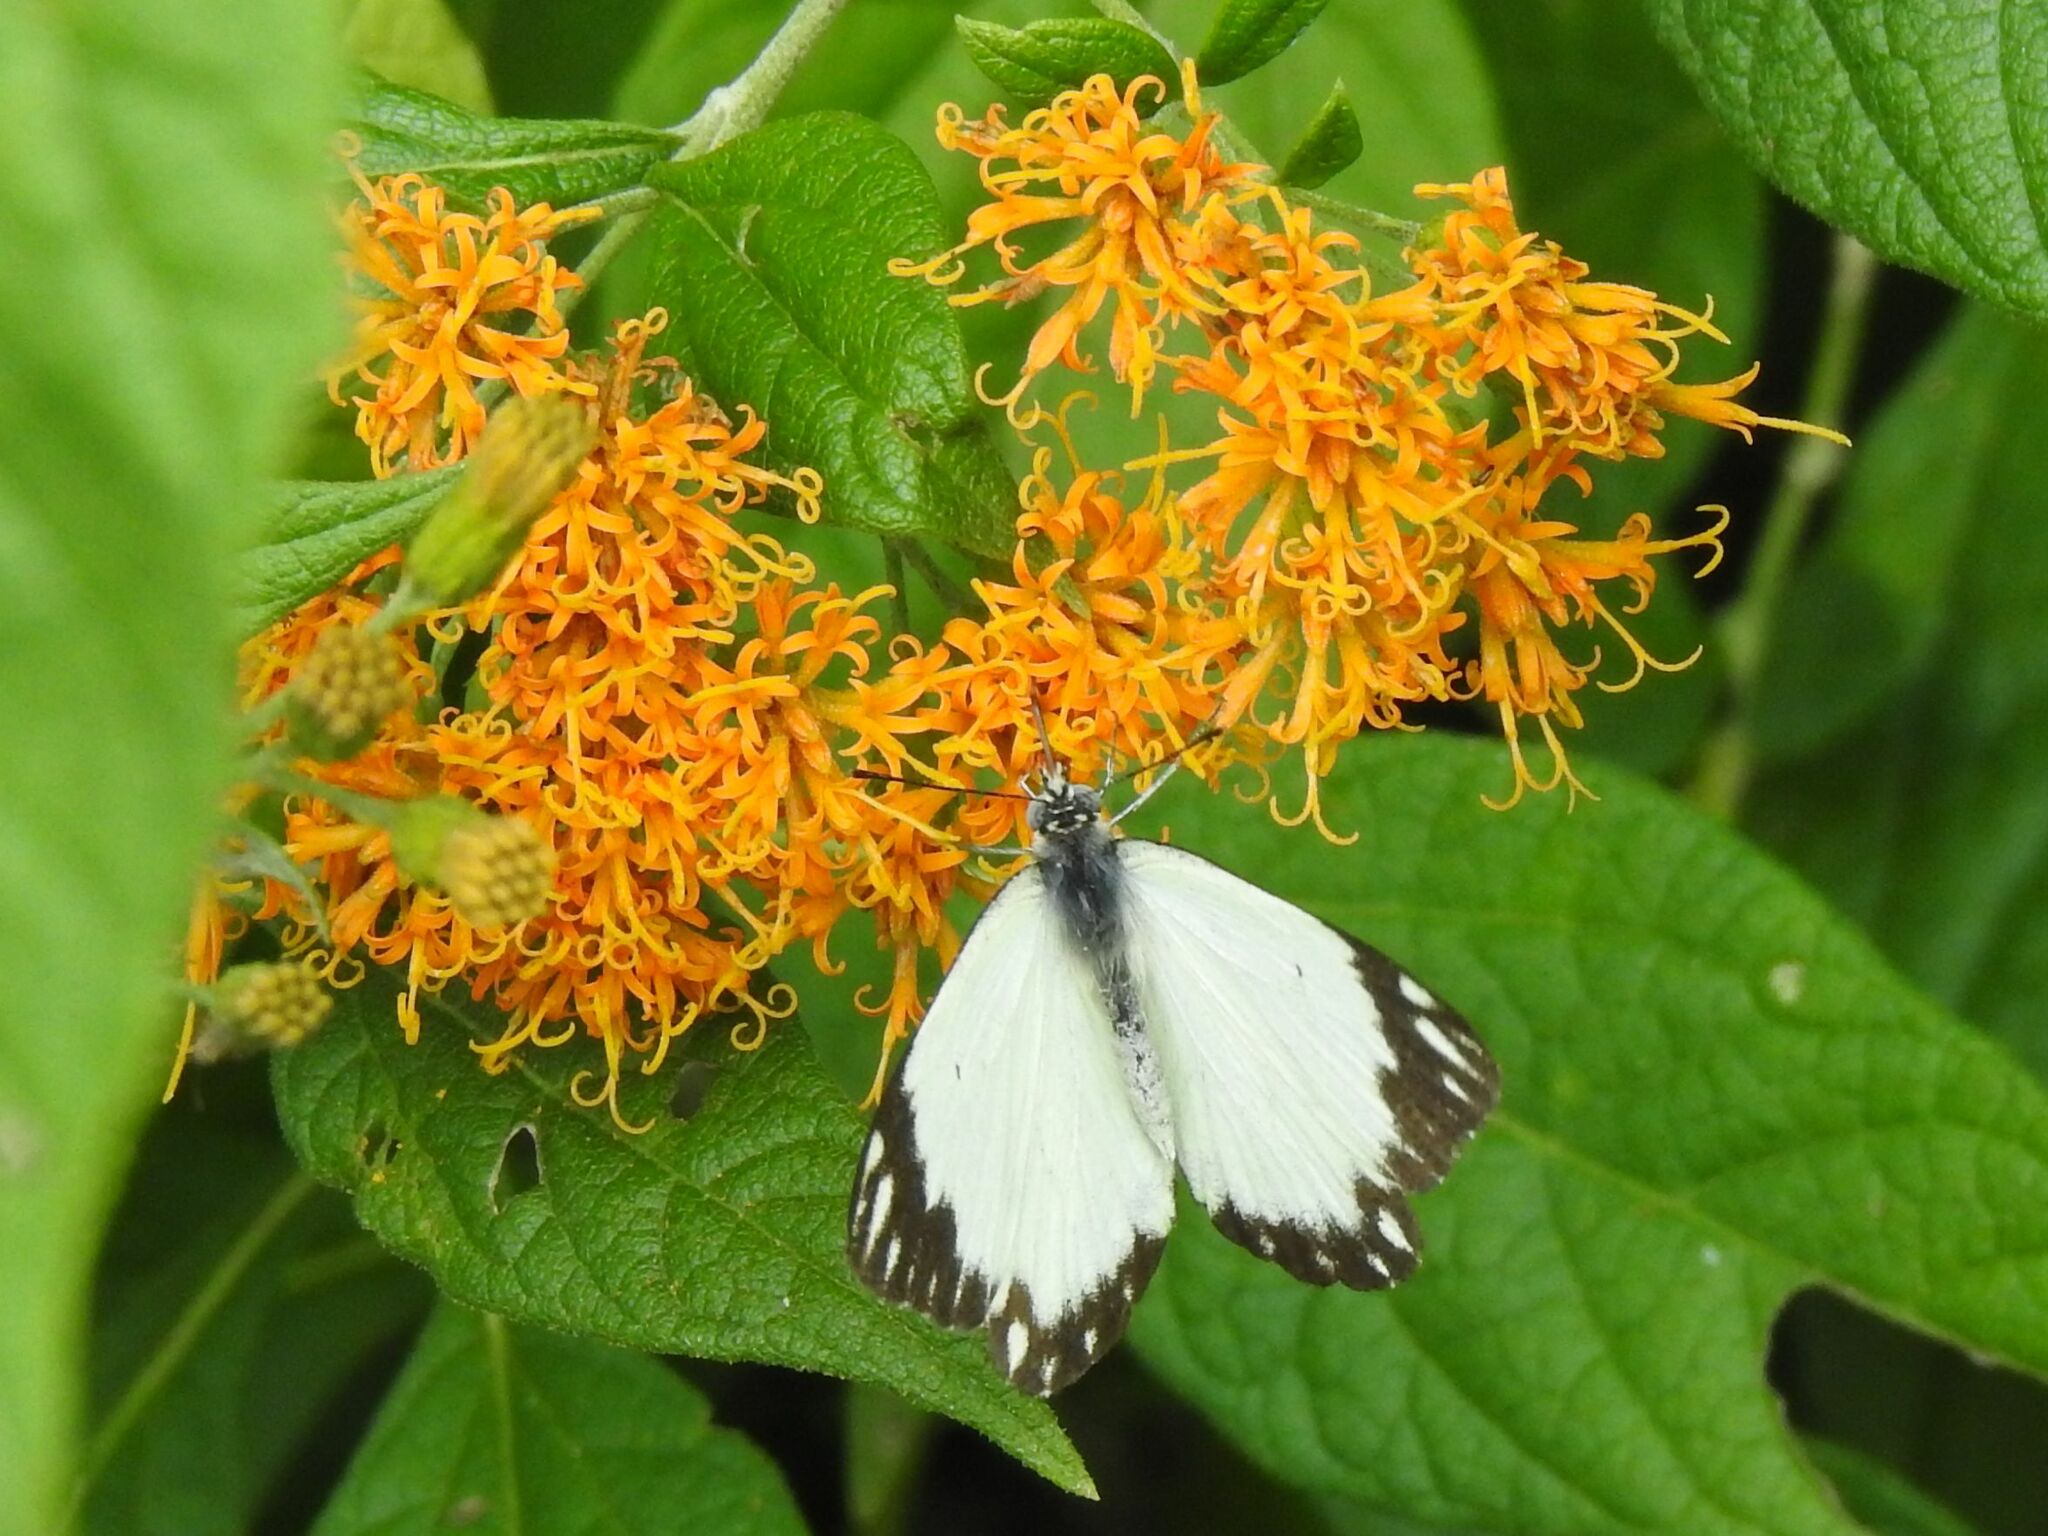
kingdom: Animalia
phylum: Arthropoda
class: Insecta
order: Lepidoptera
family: Pieridae
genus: Belenois
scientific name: Belenois creona
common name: African caper white
